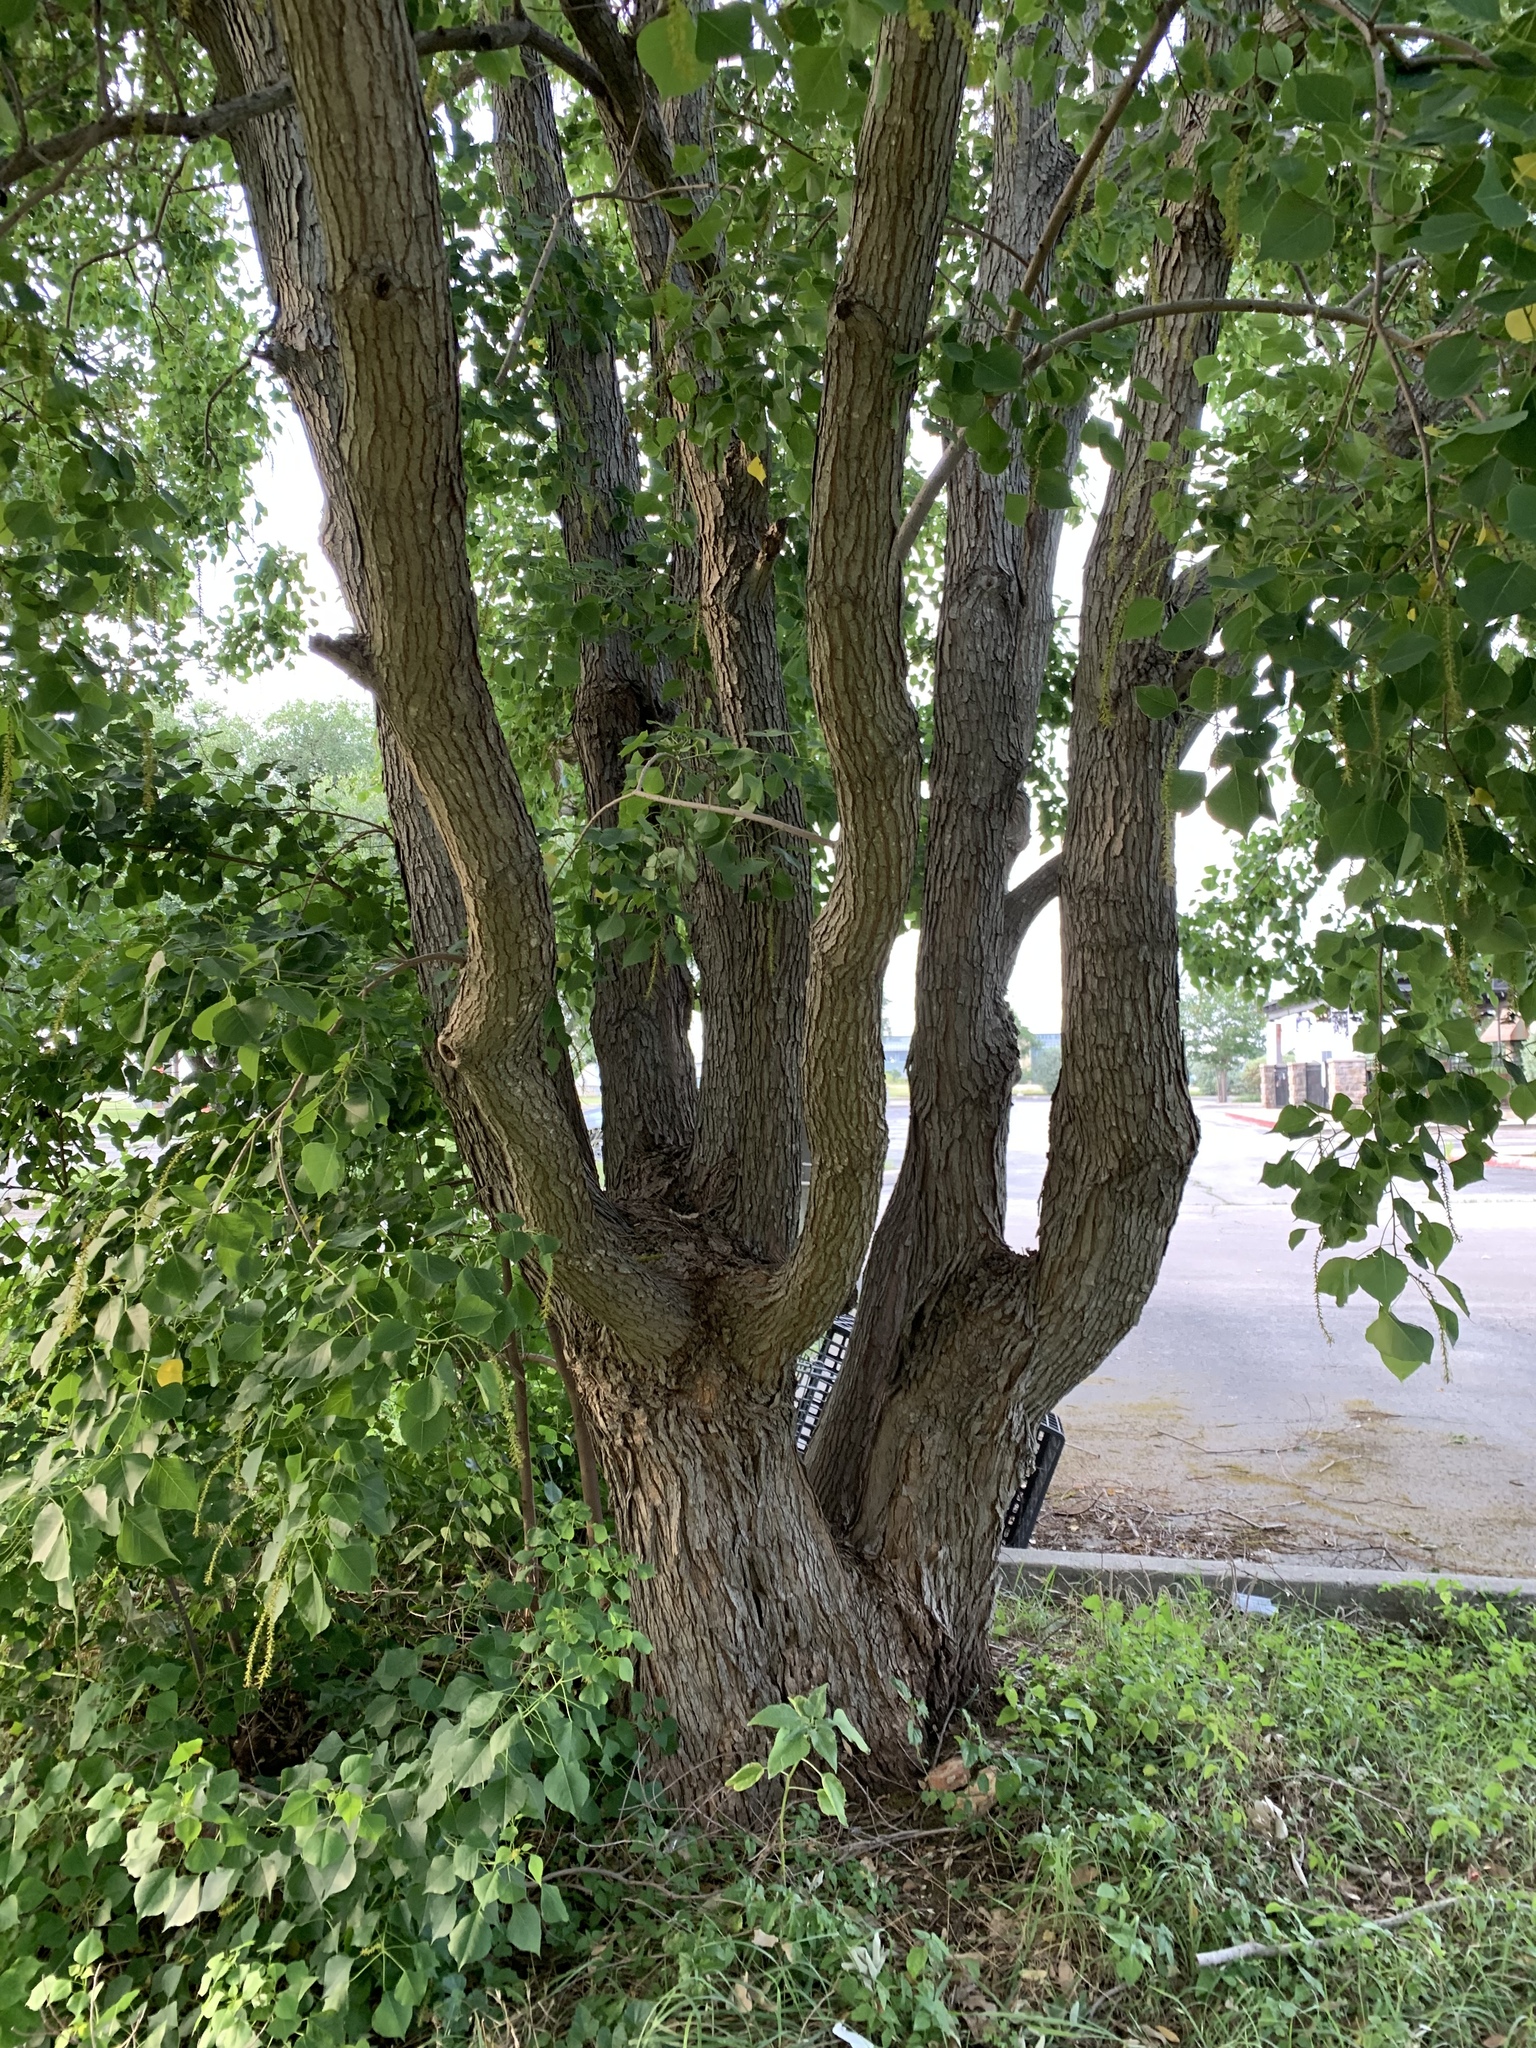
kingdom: Plantae
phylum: Tracheophyta
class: Magnoliopsida
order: Malpighiales
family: Euphorbiaceae
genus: Triadica
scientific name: Triadica sebifera
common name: Chinese tallow
